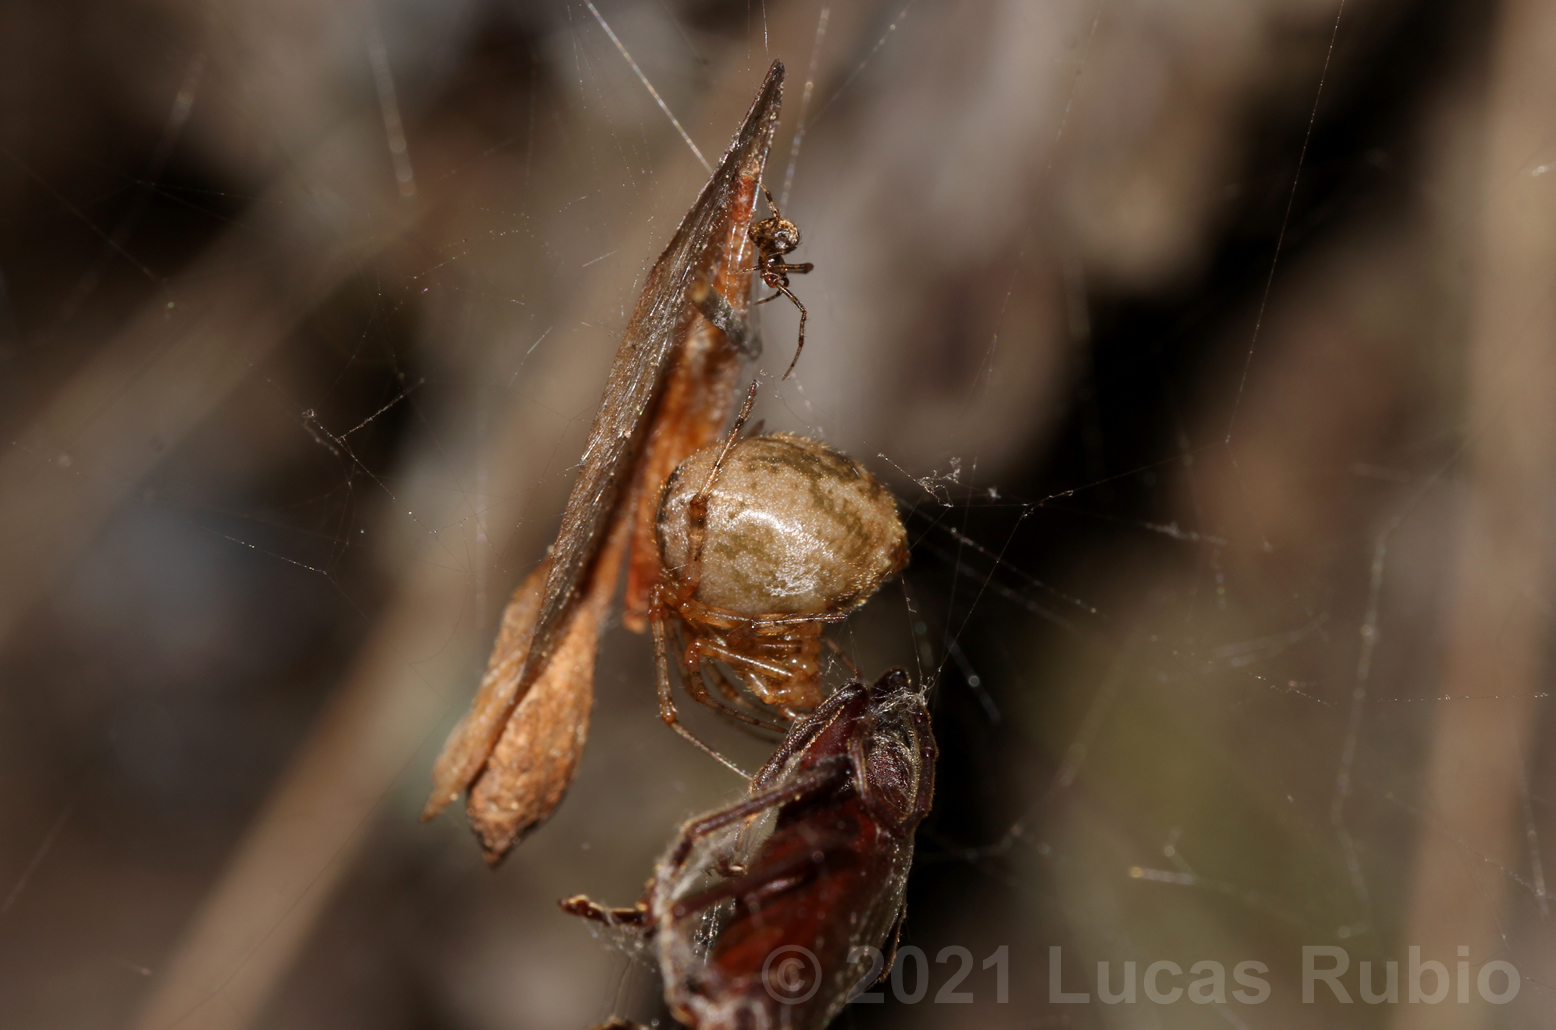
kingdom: Animalia
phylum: Arthropoda
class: Arachnida
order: Araneae
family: Theridiidae
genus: Tidarren
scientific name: Tidarren sisyphoides
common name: Cobweb spiders
